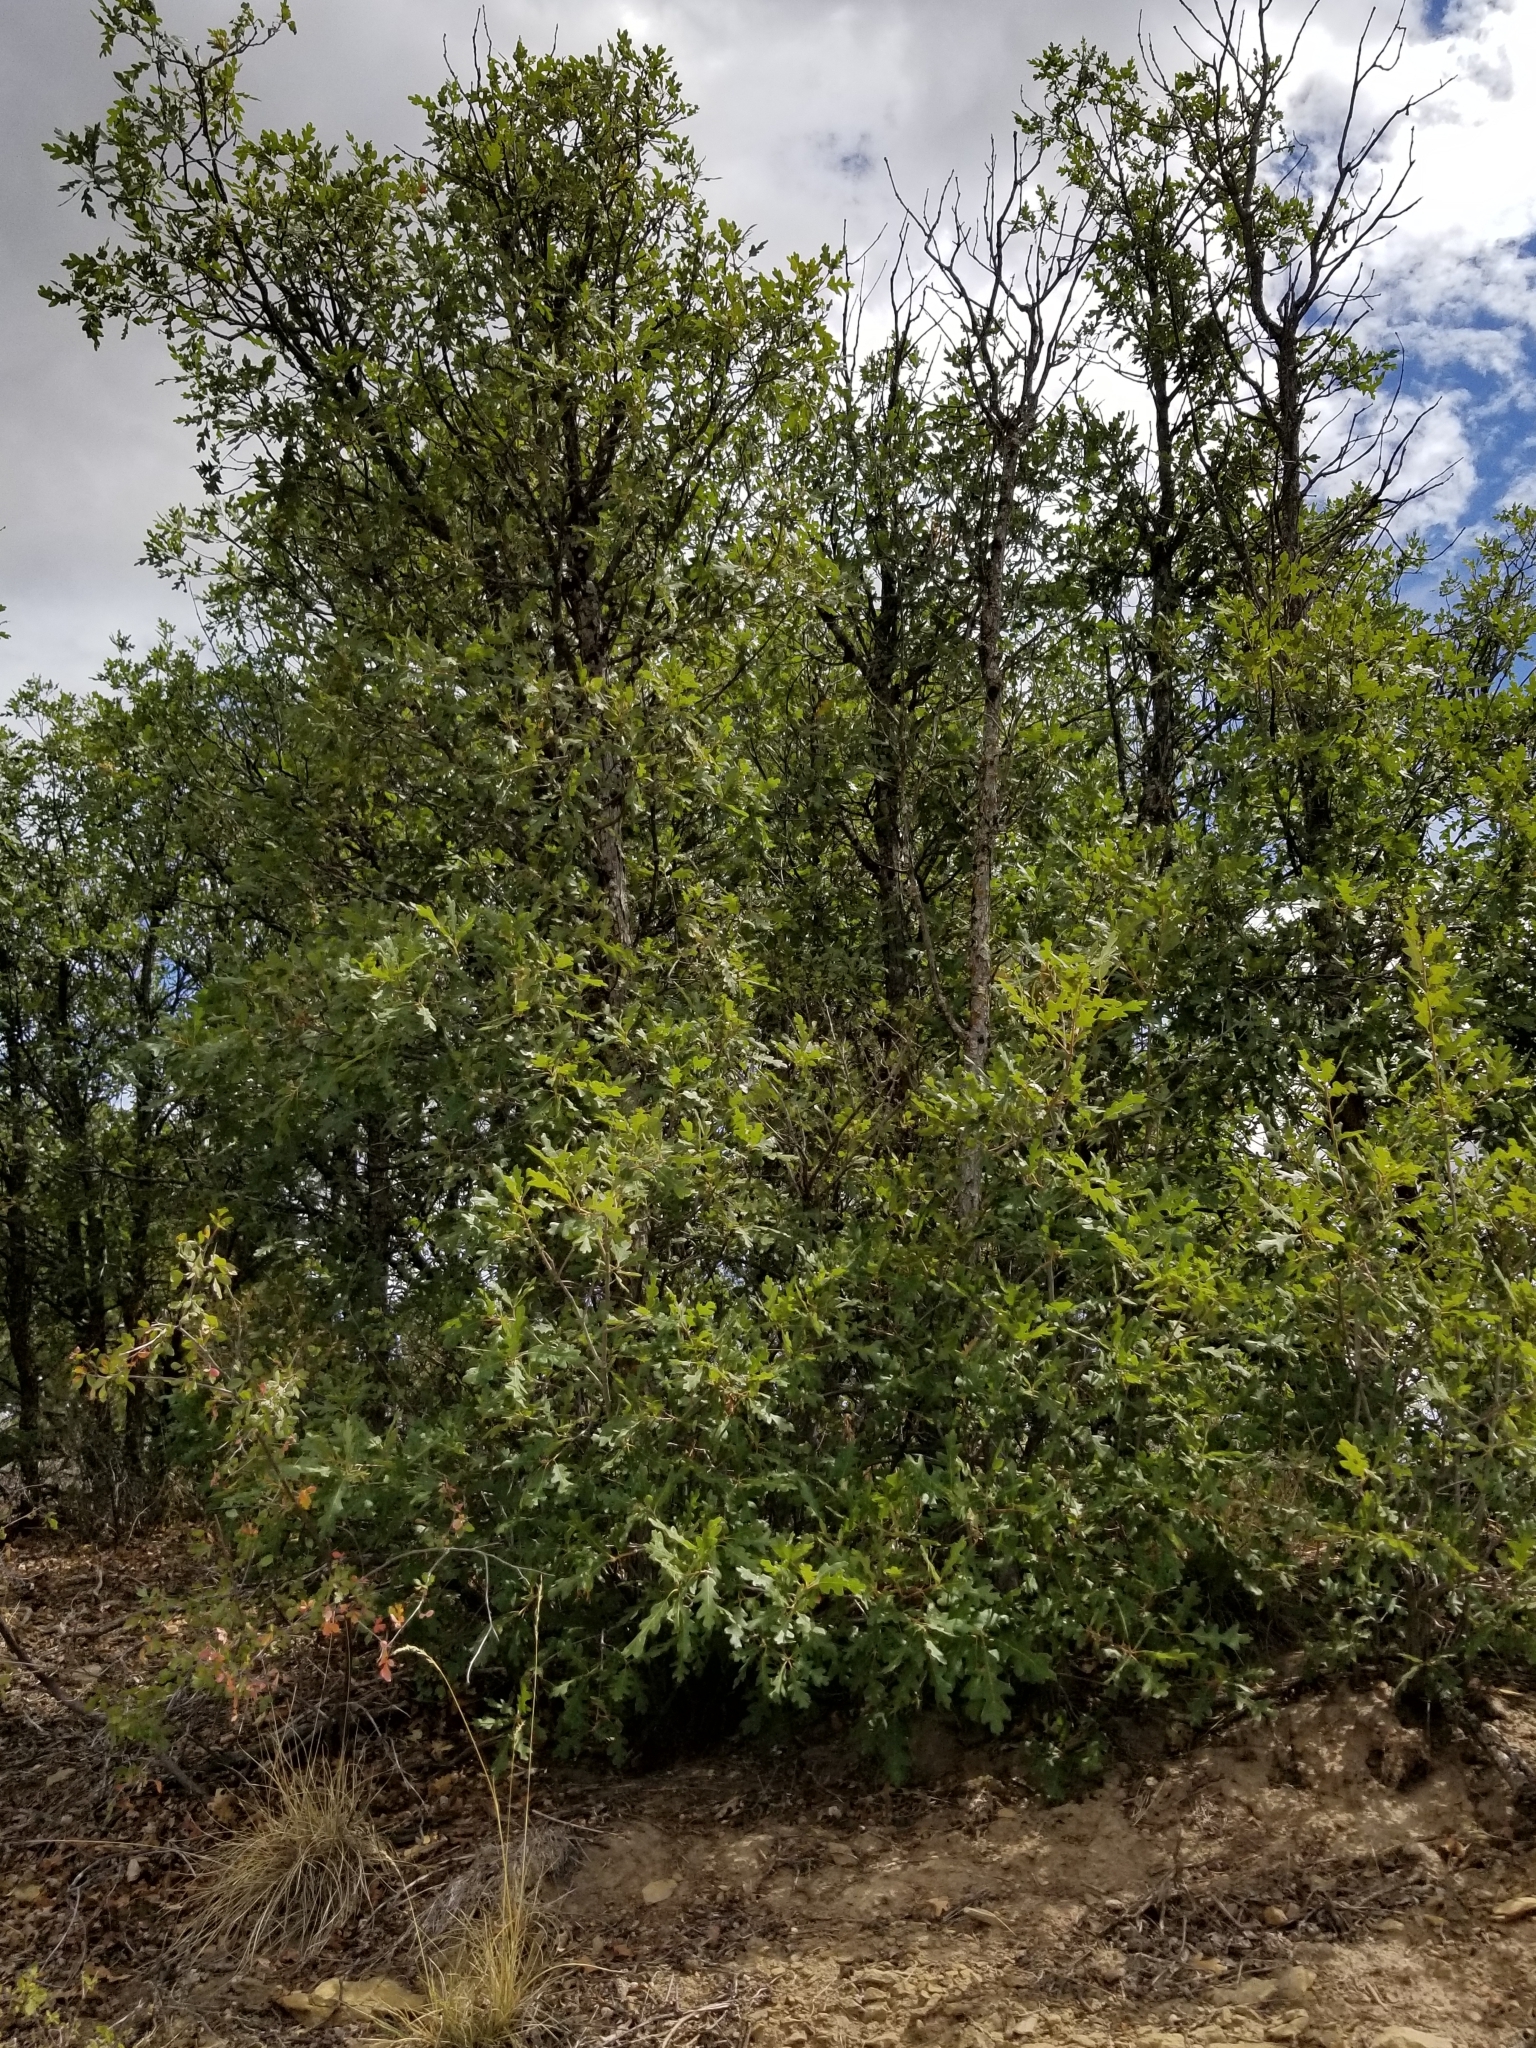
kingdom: Plantae
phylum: Tracheophyta
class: Magnoliopsida
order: Fagales
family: Fagaceae
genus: Quercus
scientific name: Quercus gambelii
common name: Gambel oak
